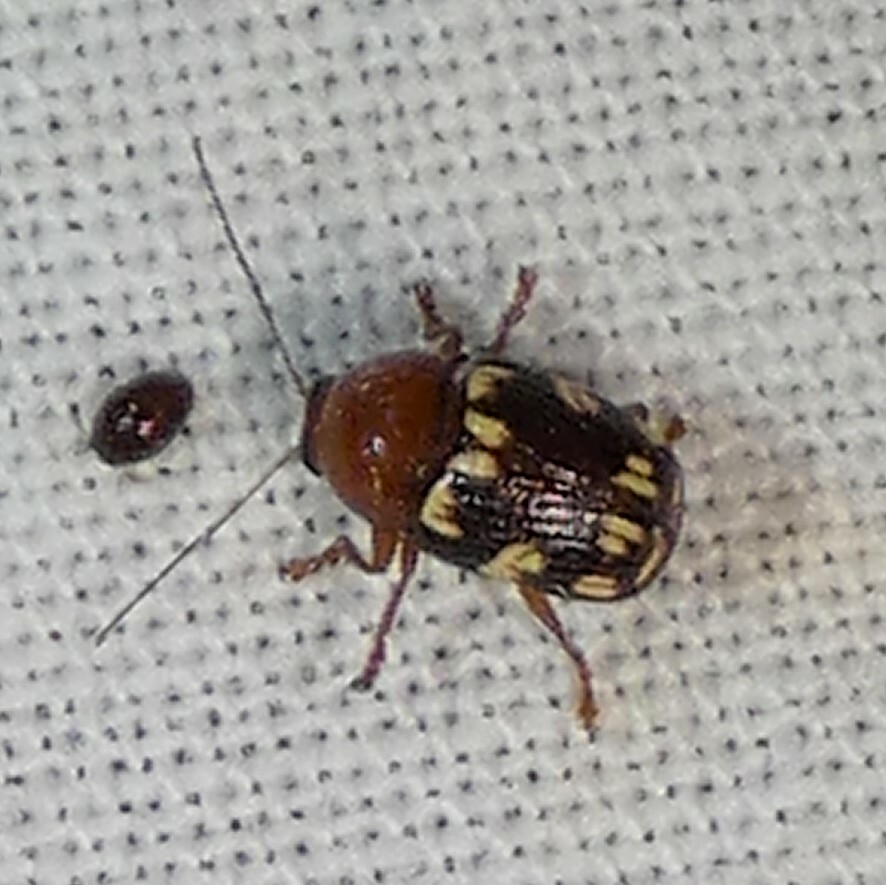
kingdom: Animalia
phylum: Arthropoda
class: Insecta
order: Coleoptera
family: Chrysomelidae
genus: Cryptocephalus
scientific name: Cryptocephalus badius
